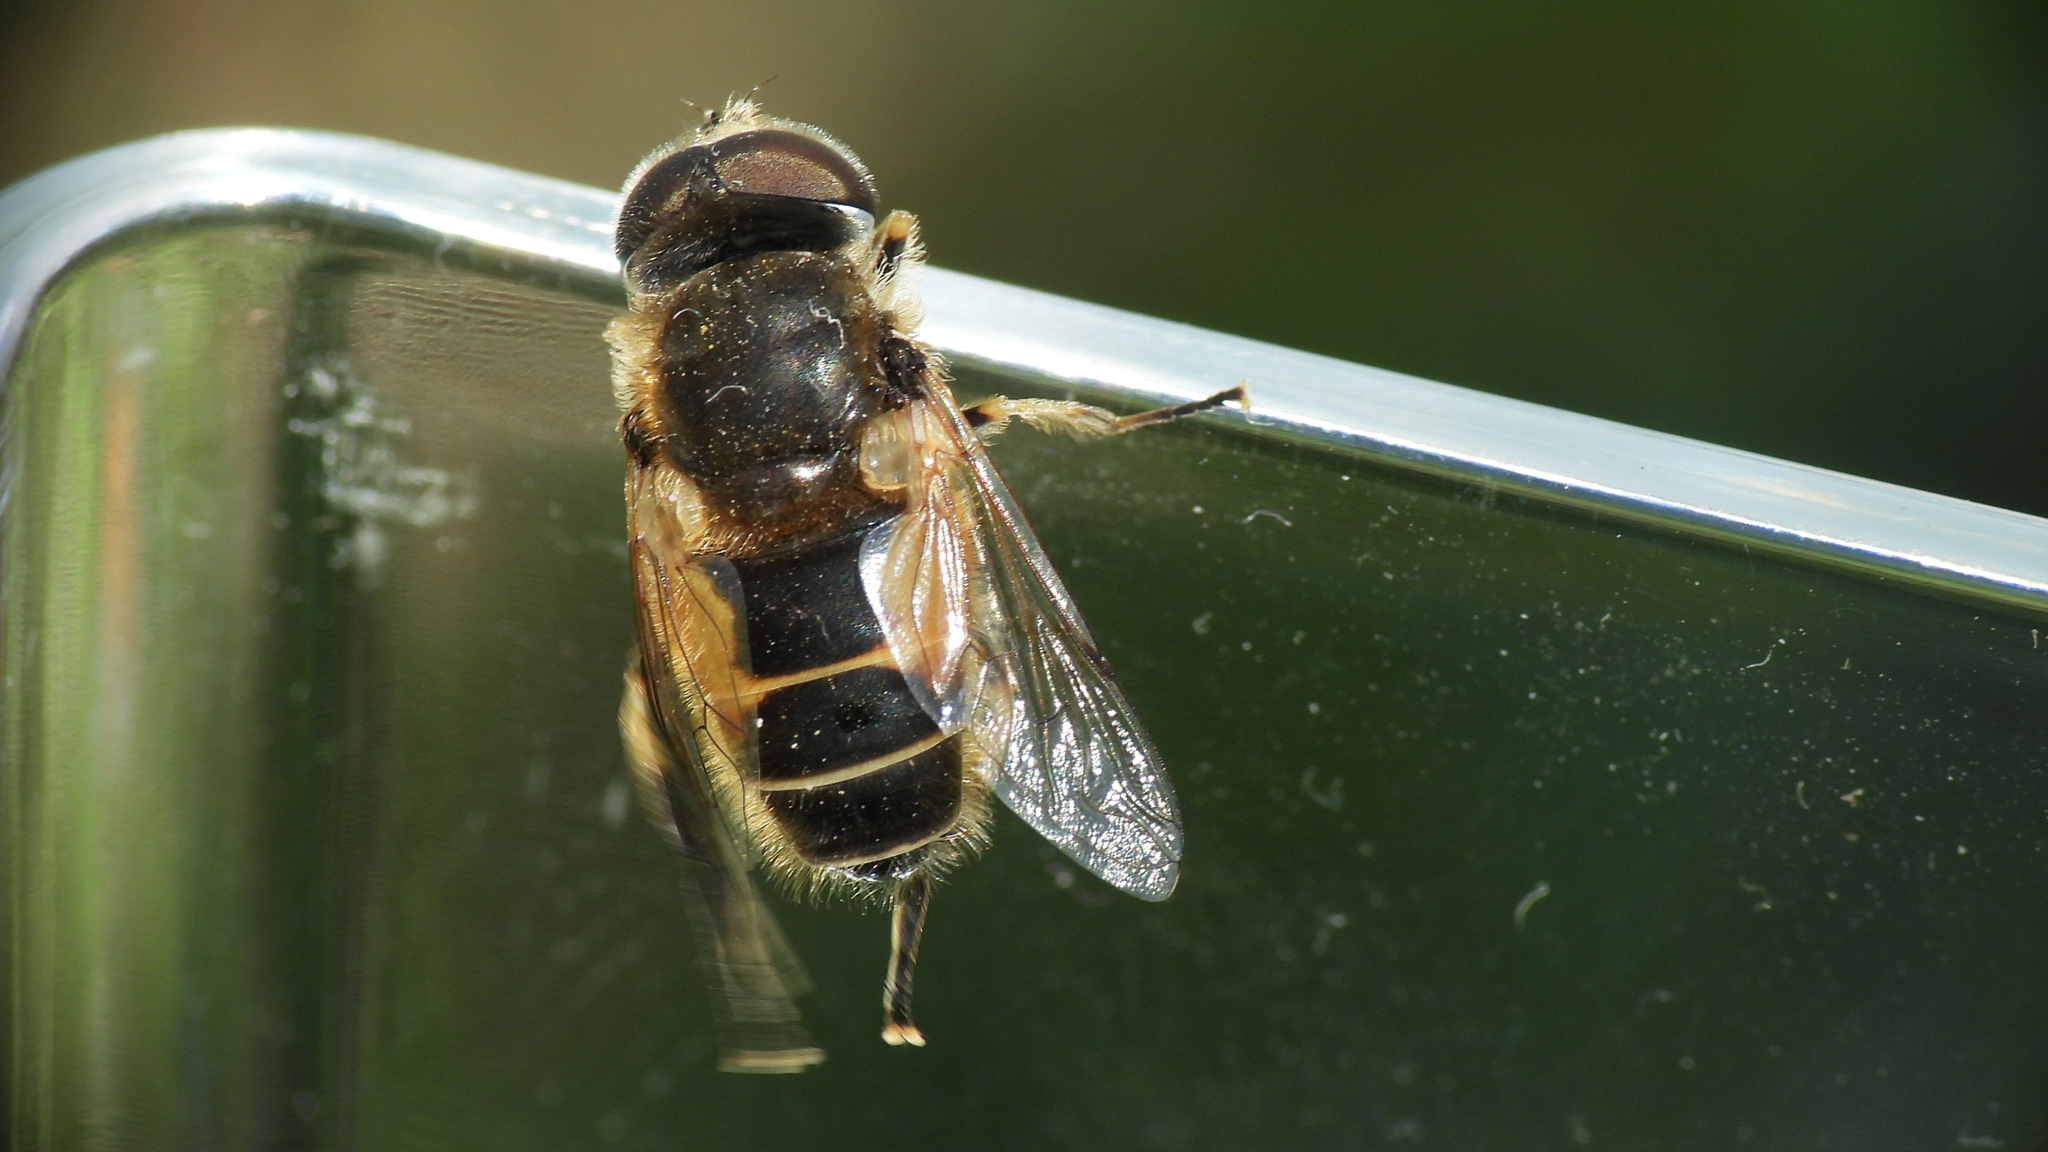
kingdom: Animalia
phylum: Arthropoda
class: Insecta
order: Diptera
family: Syrphidae
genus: Eristalis
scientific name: Eristalis arbustorum
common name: Hover fly
